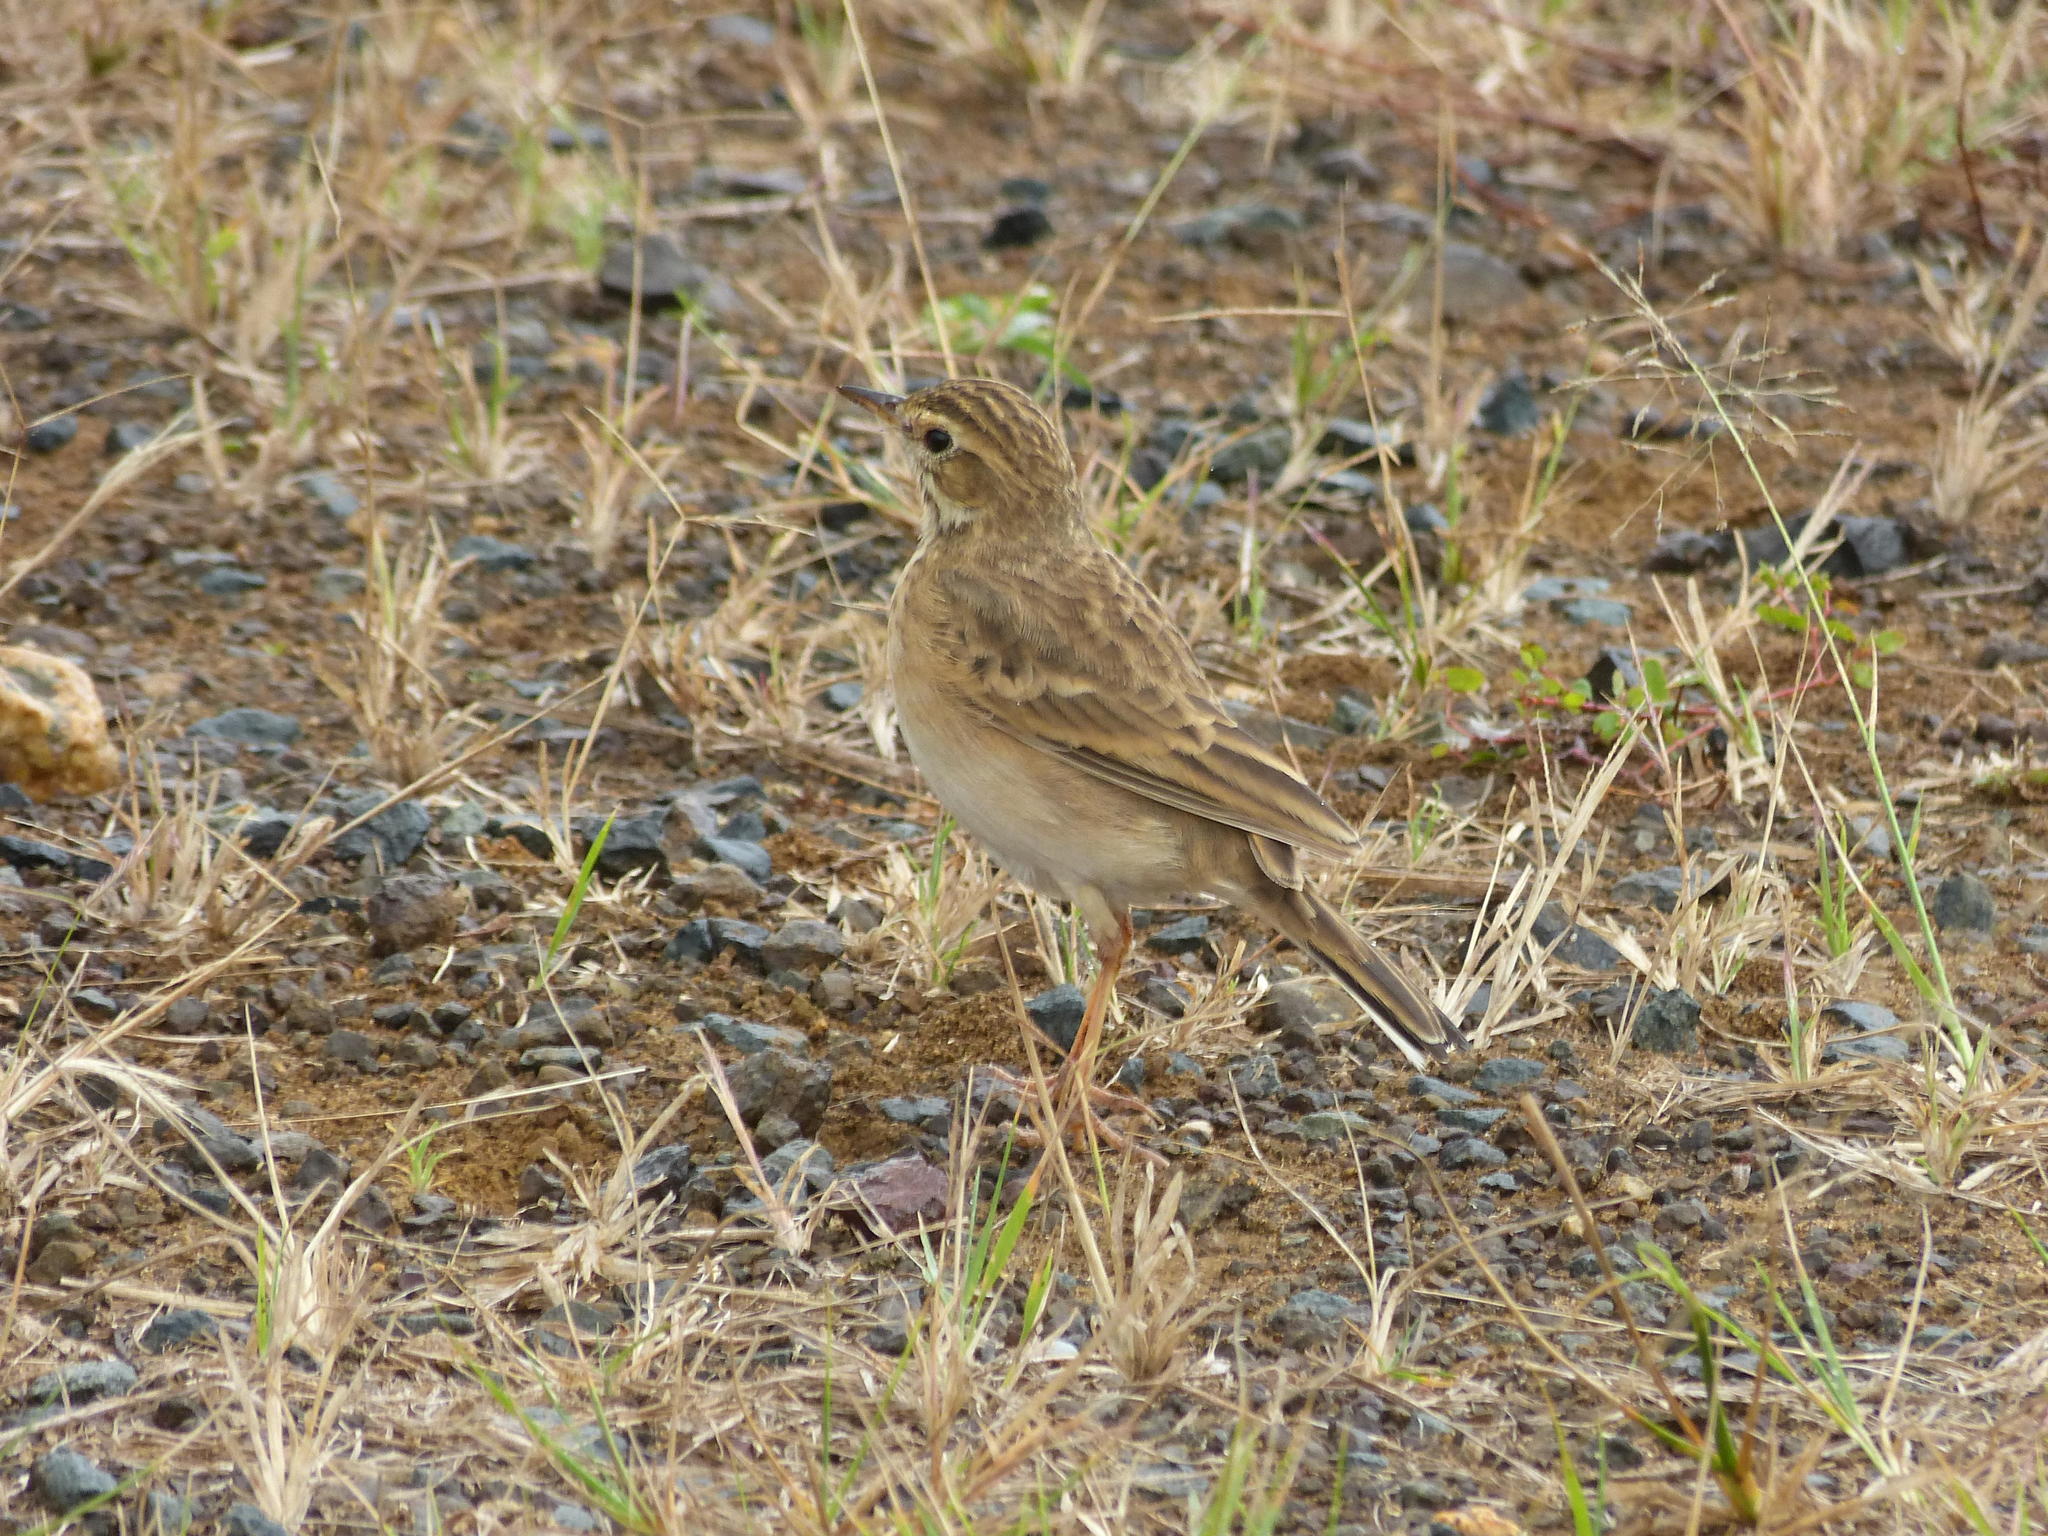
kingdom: Animalia
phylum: Chordata
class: Aves
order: Passeriformes
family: Motacillidae
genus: Anthus
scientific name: Anthus cinnamomeus
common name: African pipit
